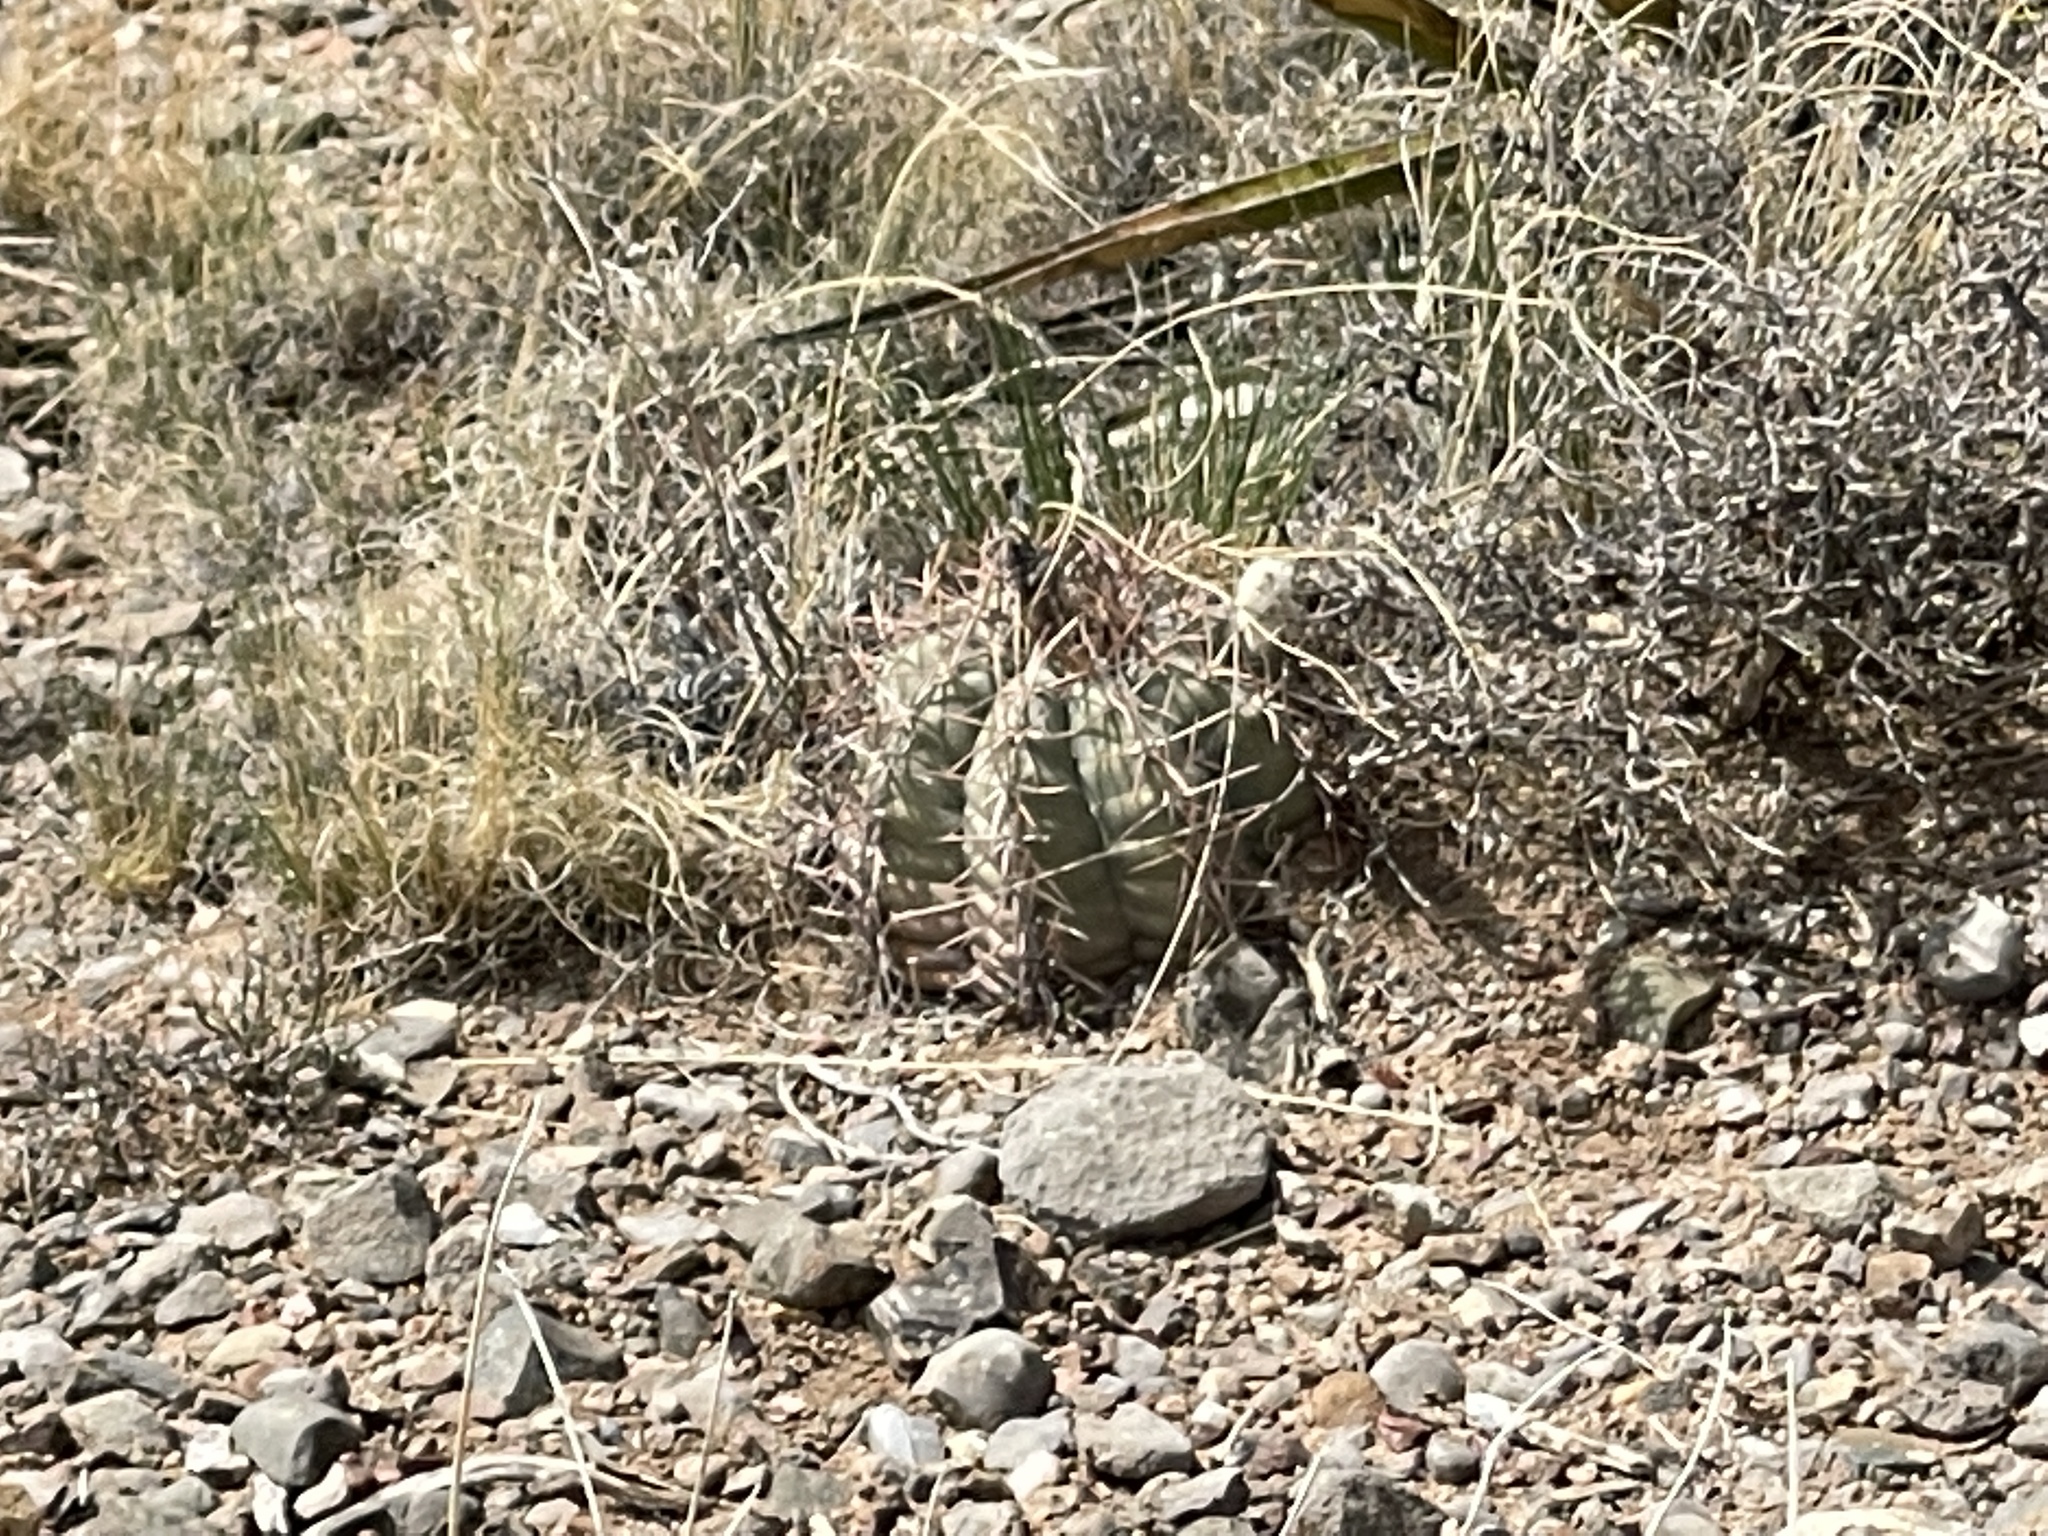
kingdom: Plantae
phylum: Tracheophyta
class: Magnoliopsida
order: Caryophyllales
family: Cactaceae
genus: Echinocactus
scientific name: Echinocactus horizonthalonius
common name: Devilshead
